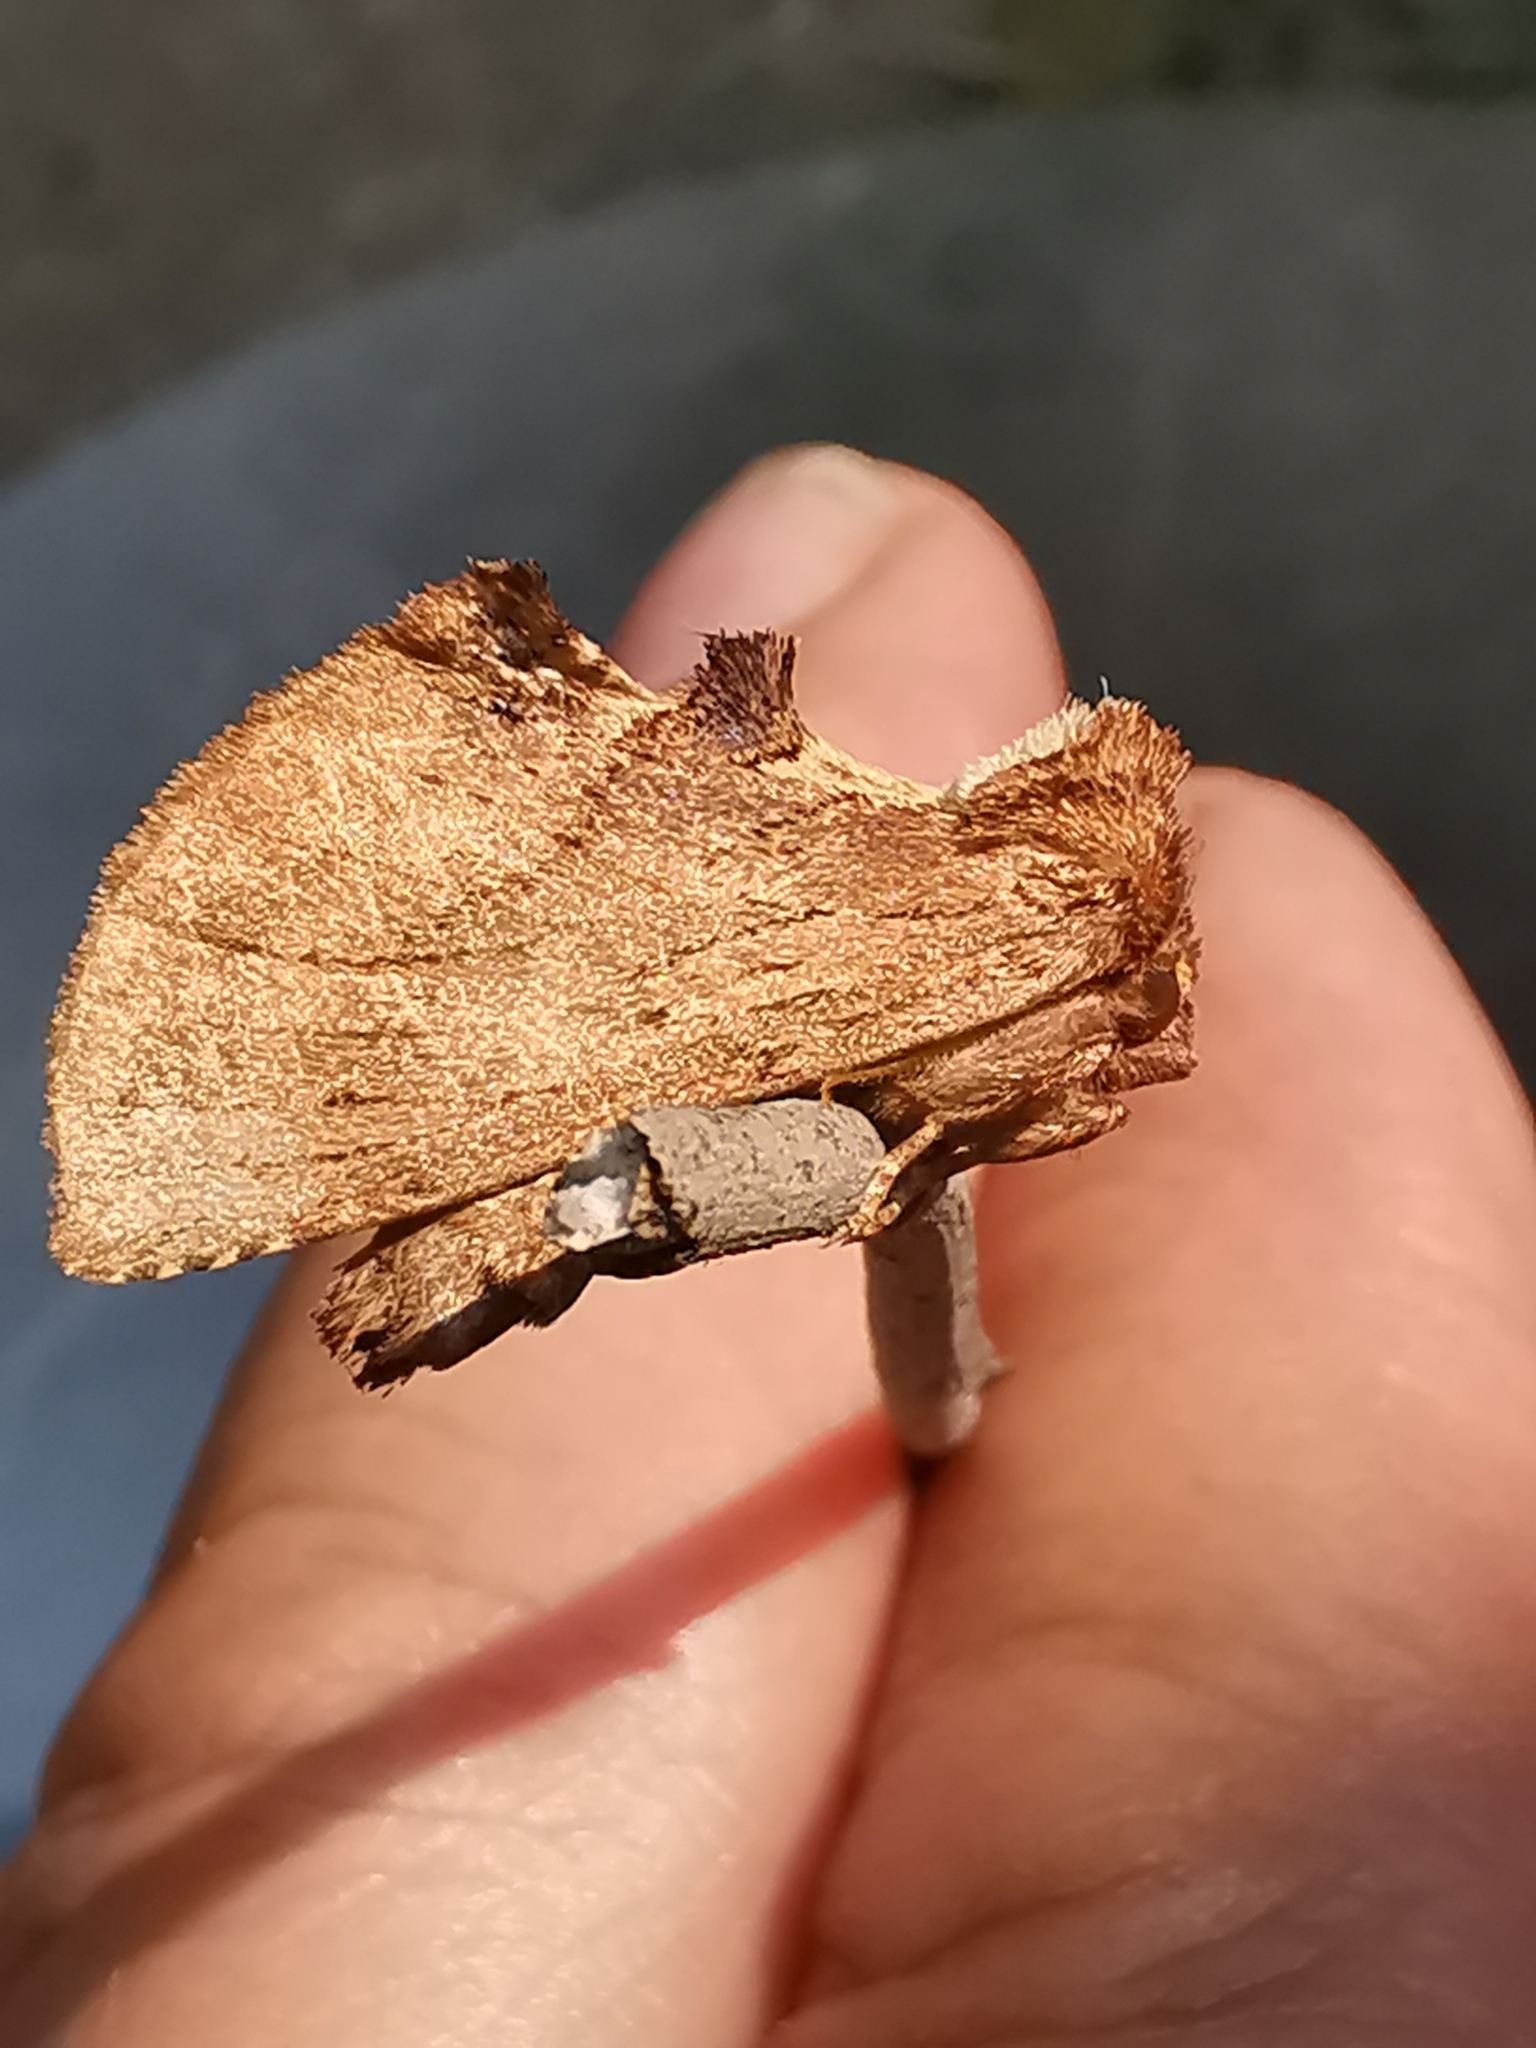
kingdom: Animalia
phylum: Arthropoda
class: Insecta
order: Lepidoptera
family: Notodontidae
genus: Ptilodon
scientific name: Ptilodon capucina
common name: Coxcomb prominent
